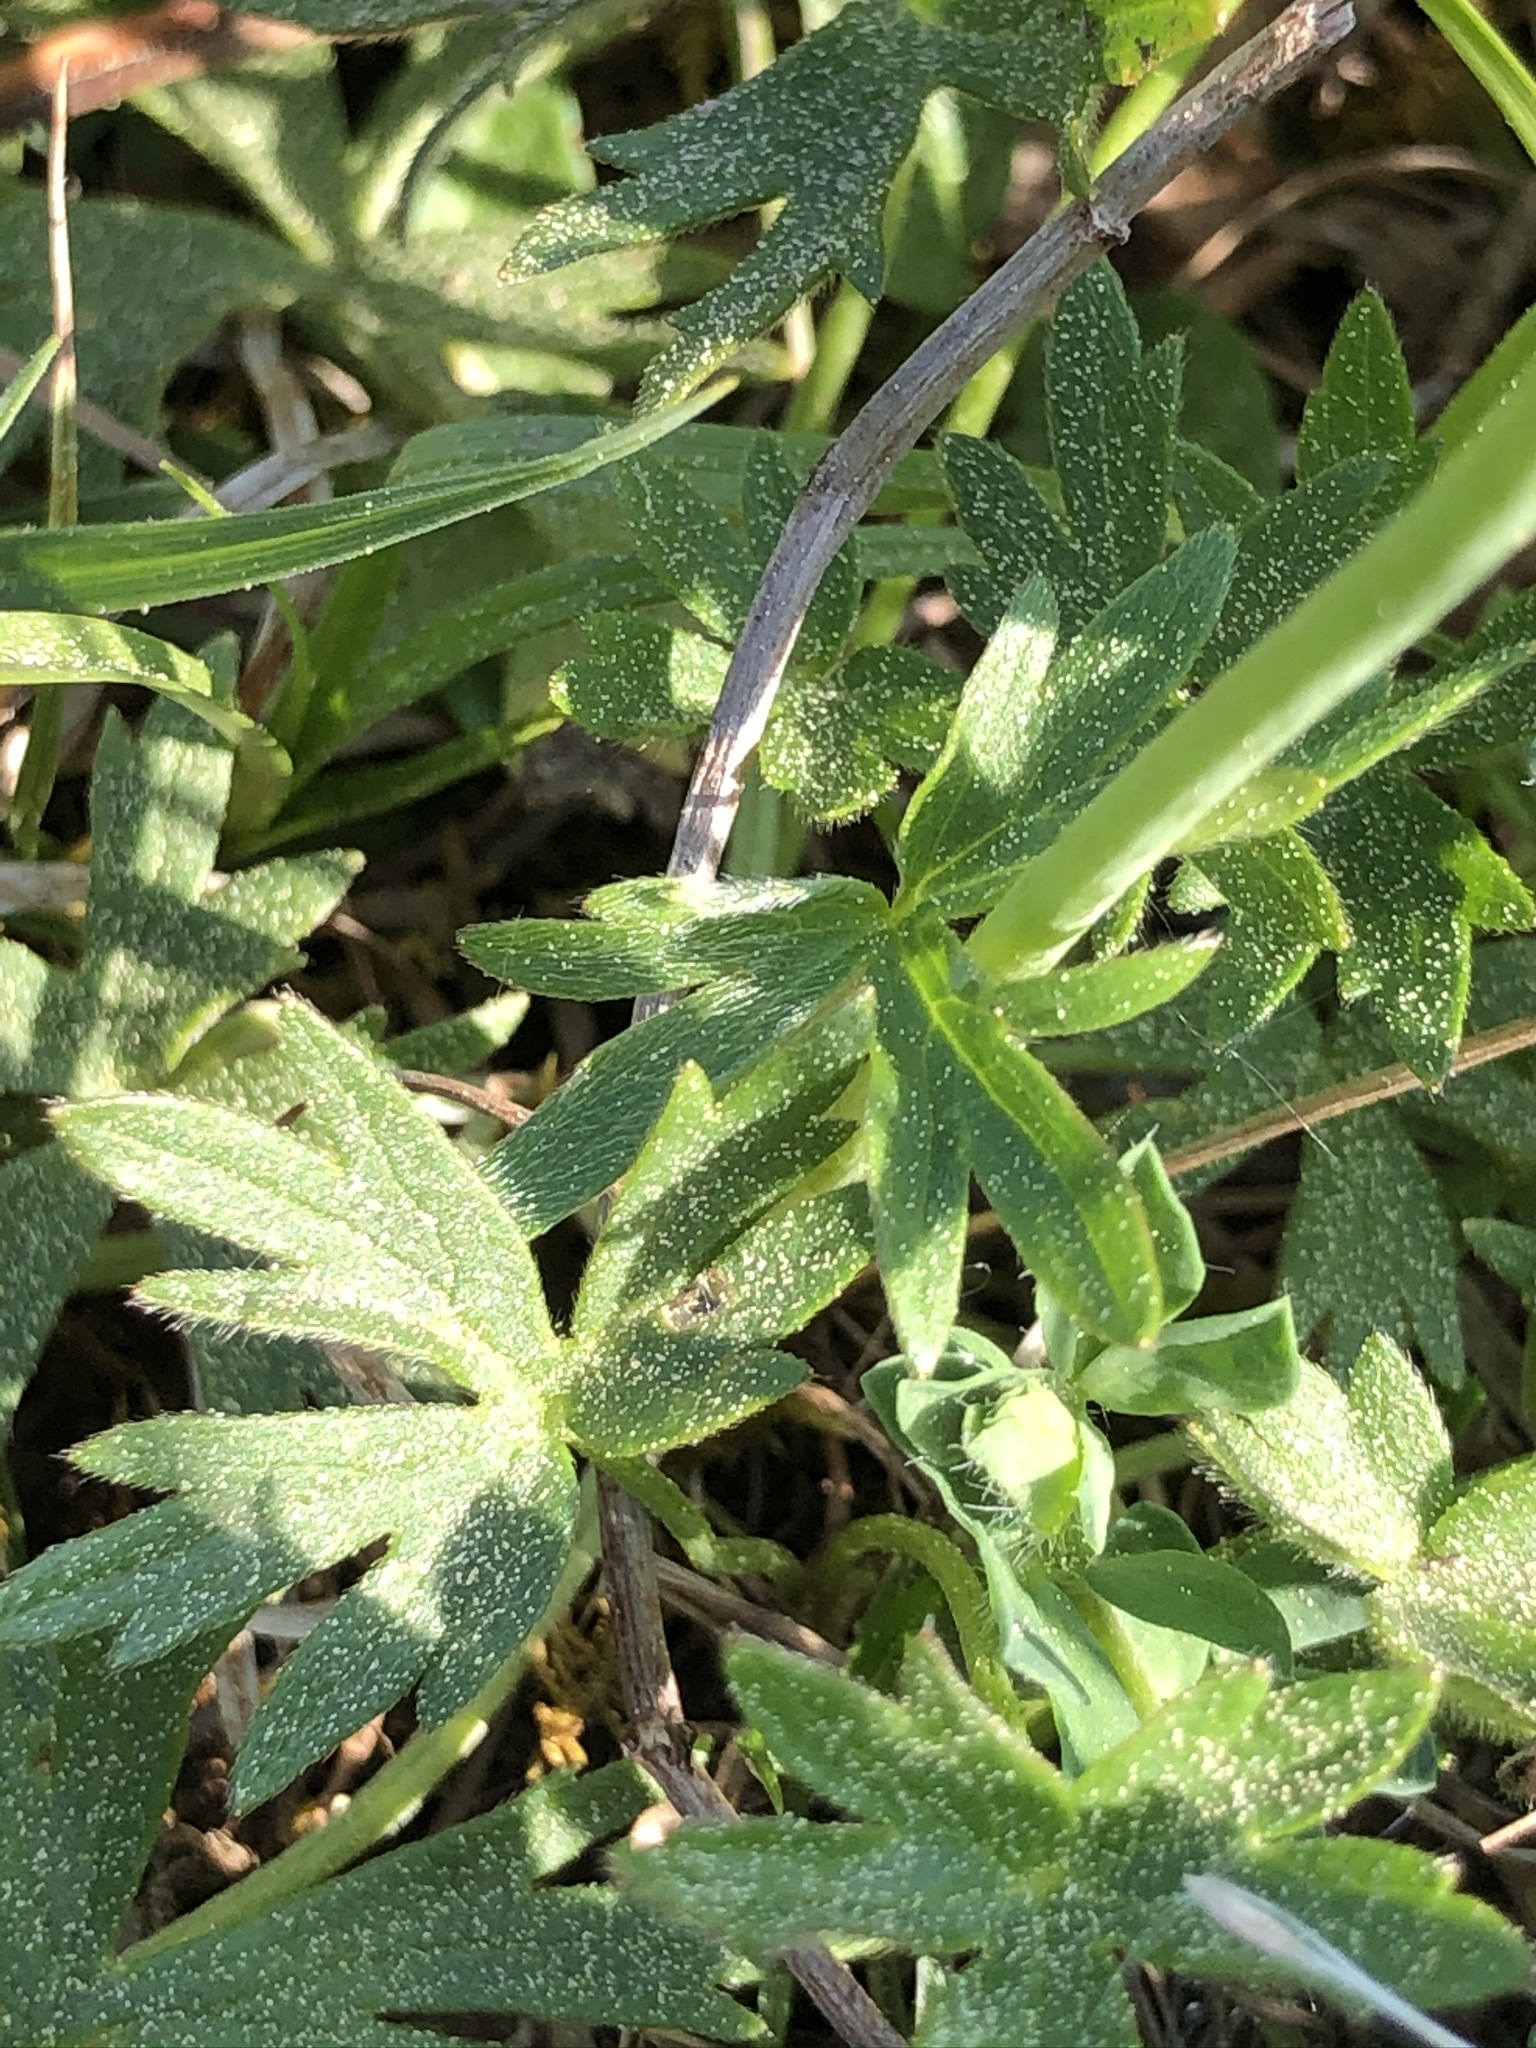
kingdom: Plantae
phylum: Tracheophyta
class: Magnoliopsida
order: Ranunculales
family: Ranunculaceae
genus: Ranunculus
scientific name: Ranunculus acris
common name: Meadow buttercup
